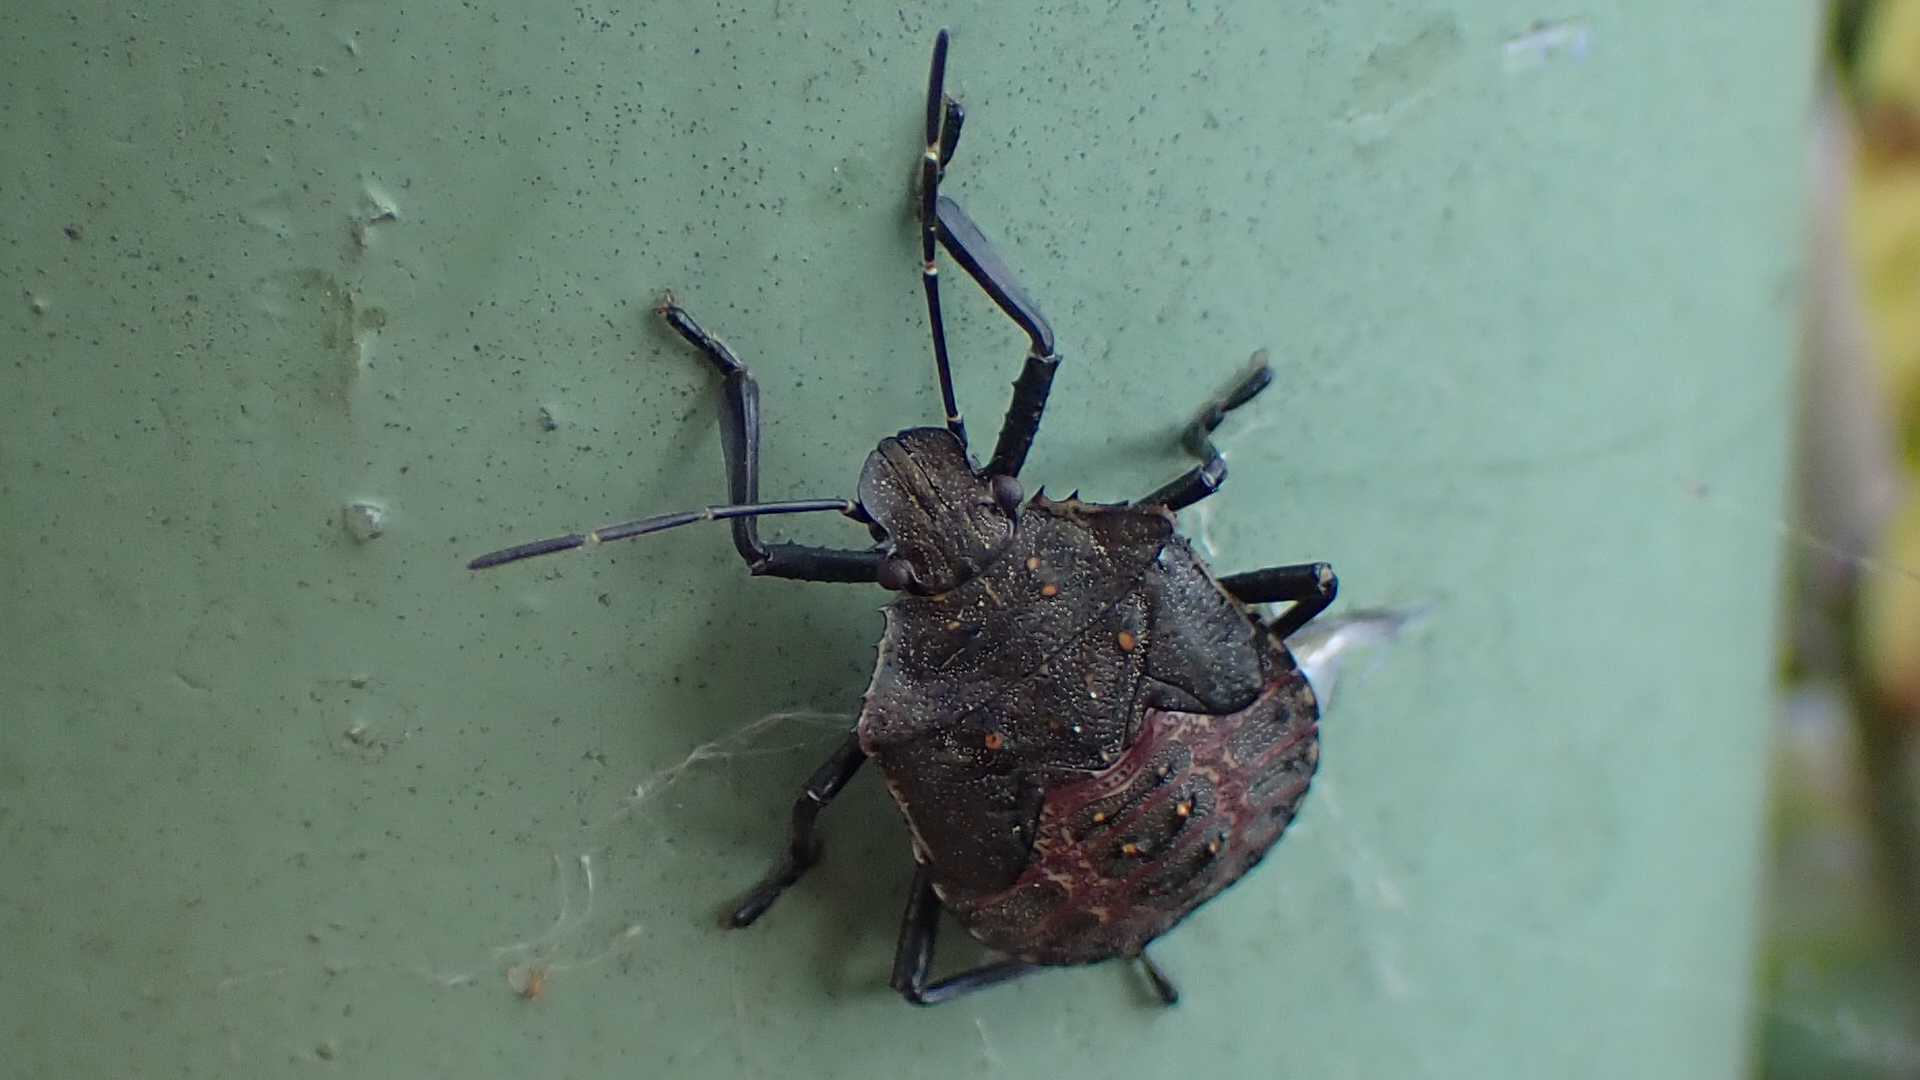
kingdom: Animalia
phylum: Arthropoda
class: Insecta
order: Hemiptera
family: Pentatomidae
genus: Halyomorpha
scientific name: Halyomorpha halys
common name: Brown marmorated stink bug
